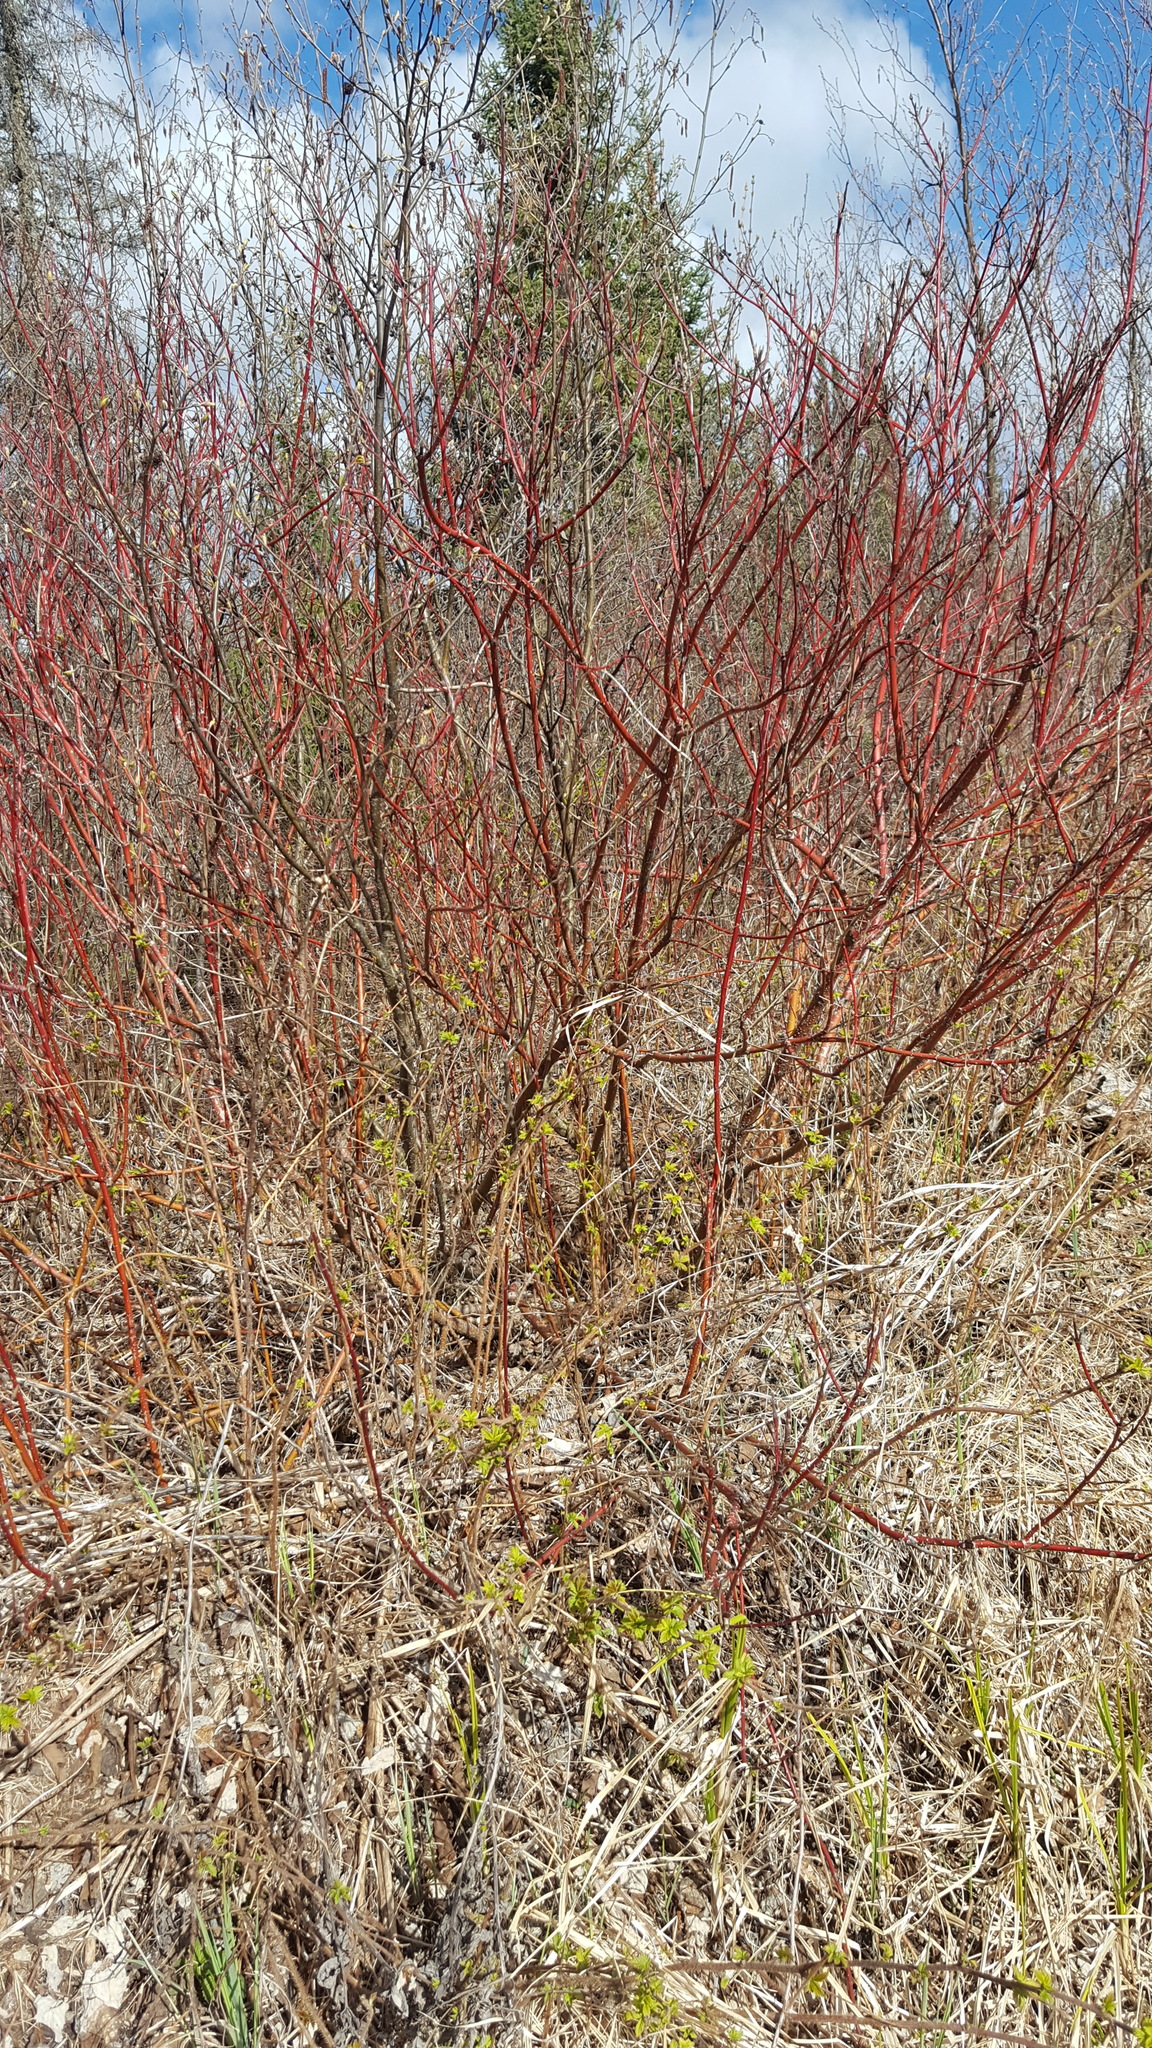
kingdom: Plantae
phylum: Tracheophyta
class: Magnoliopsida
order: Cornales
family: Cornaceae
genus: Cornus
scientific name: Cornus sericea
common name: Red-osier dogwood
